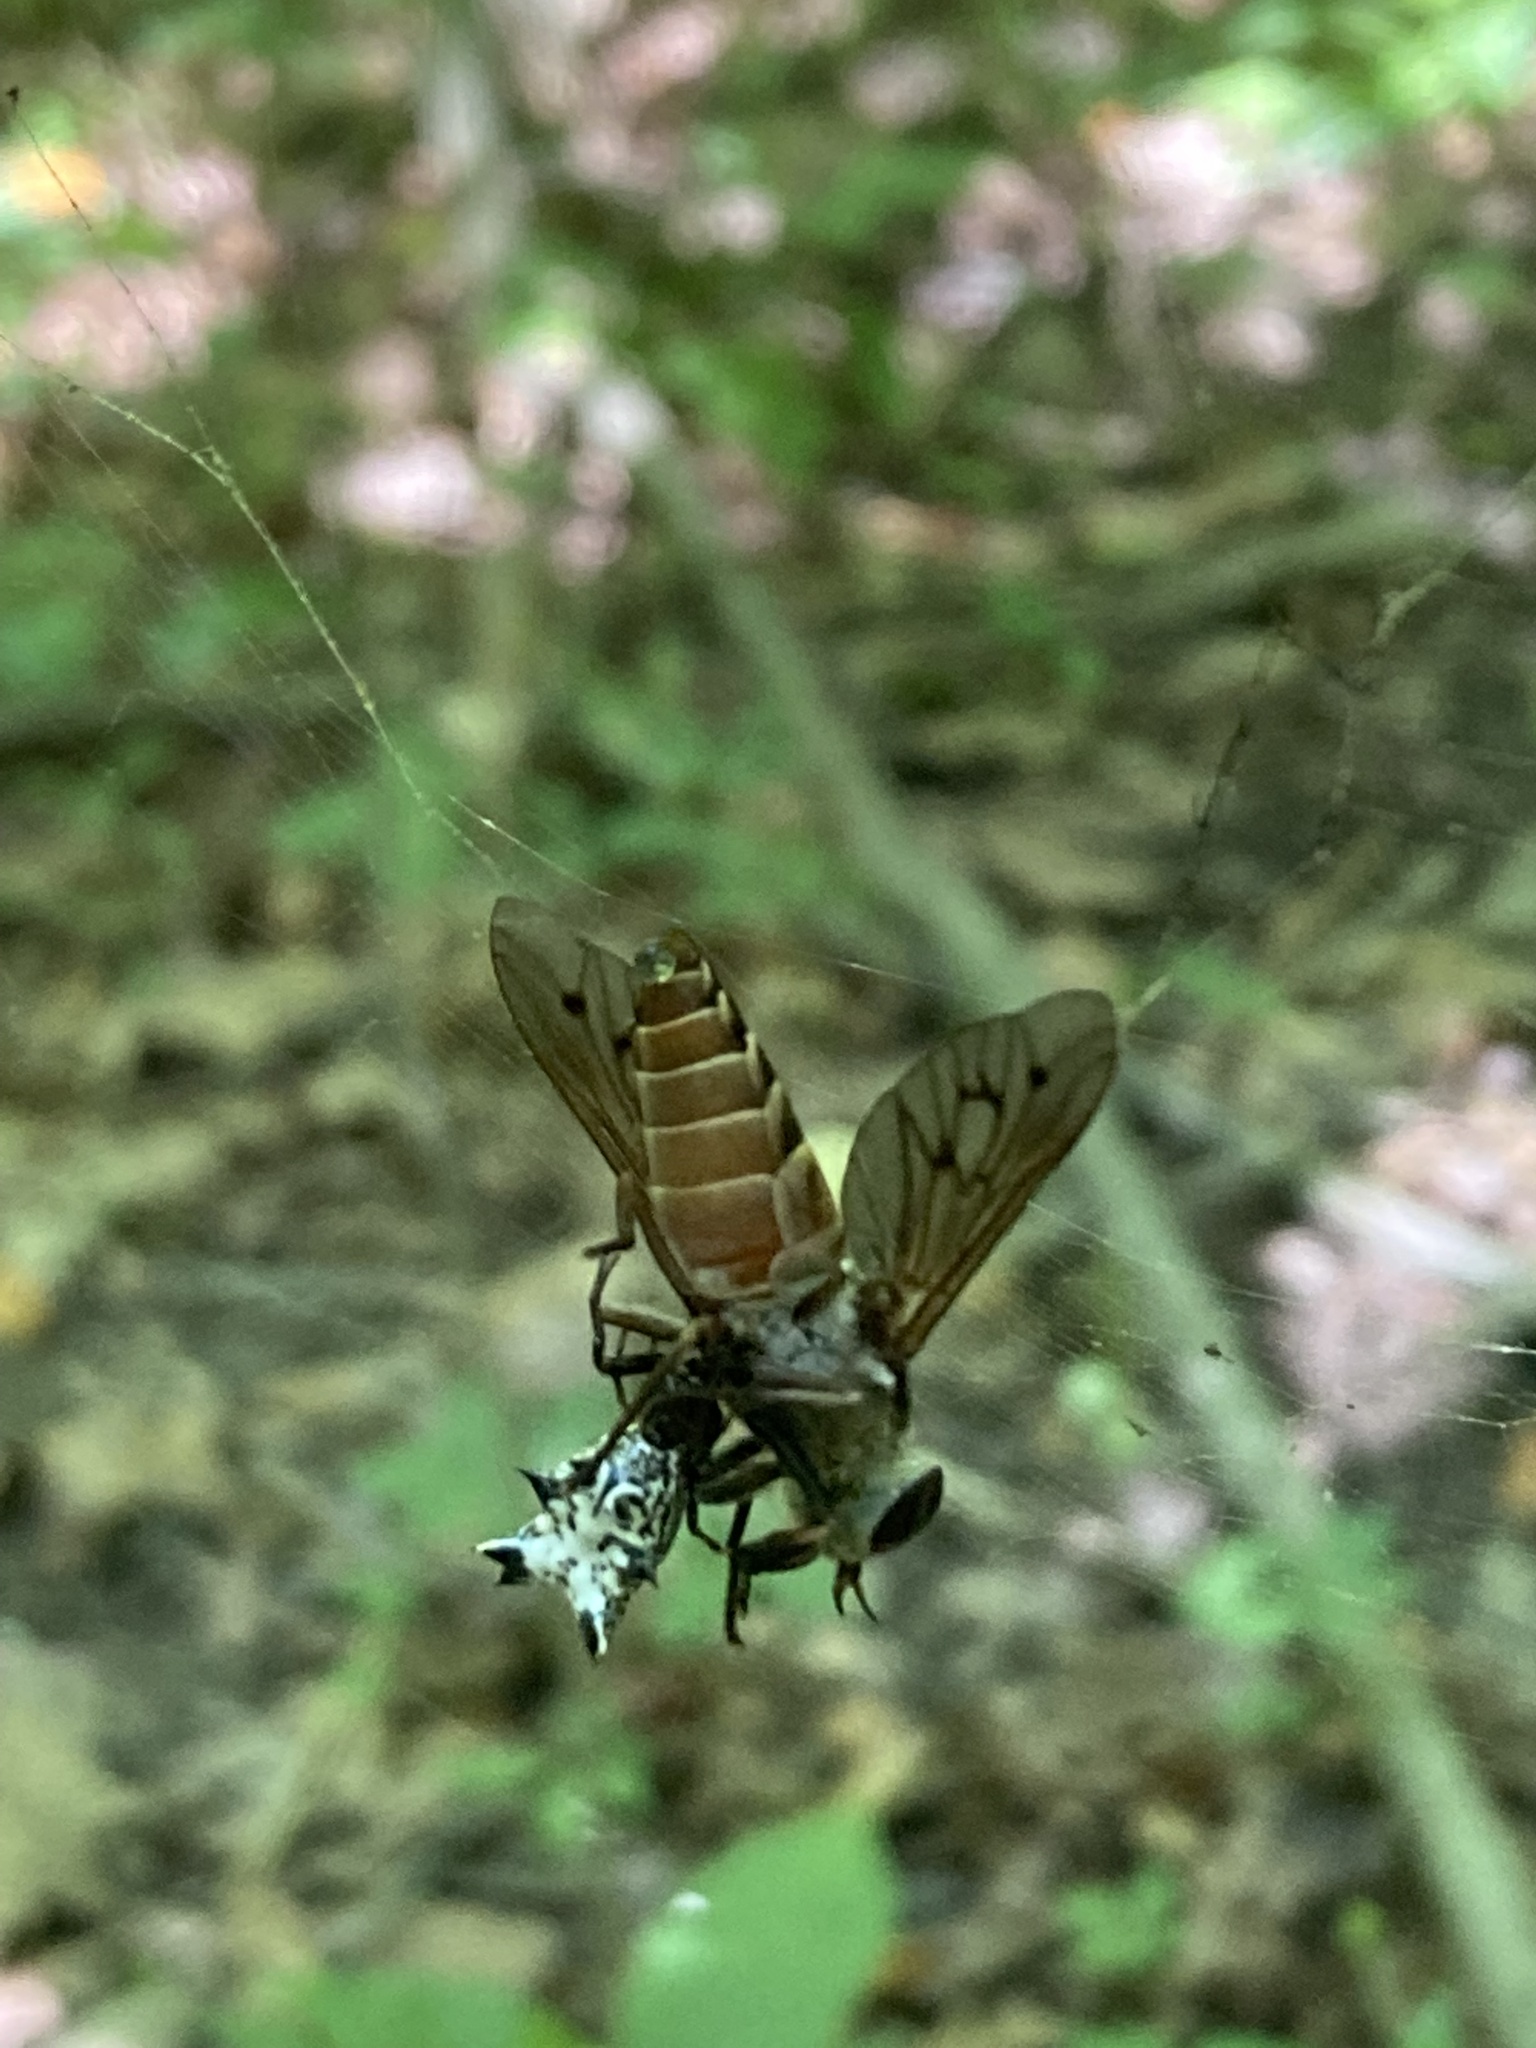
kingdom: Animalia
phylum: Arthropoda
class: Arachnida
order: Araneae
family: Araneidae
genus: Micrathena
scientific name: Micrathena gracilis
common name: Orb weavers
